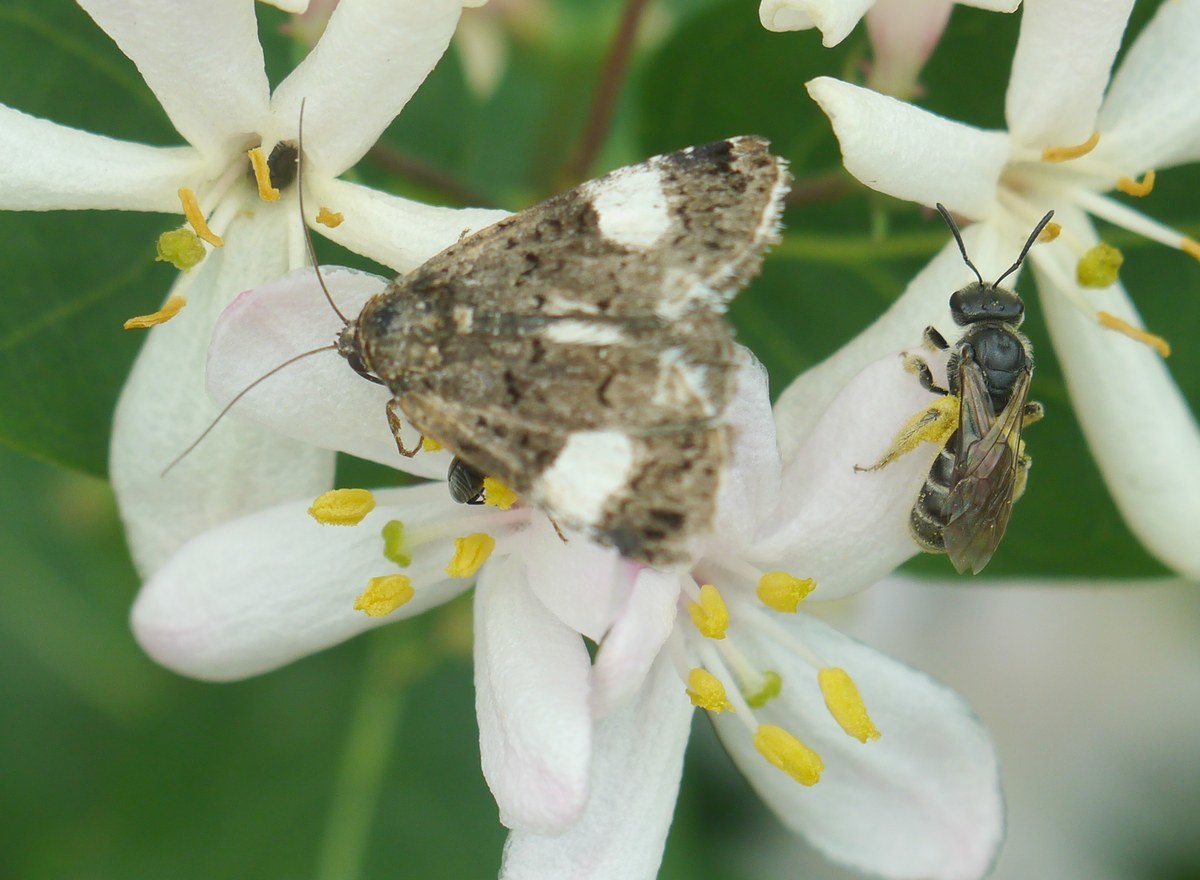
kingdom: Animalia
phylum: Arthropoda
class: Insecta
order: Lepidoptera
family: Erebidae
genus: Tyta
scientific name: Tyta luctuosa
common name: Four-spotted
